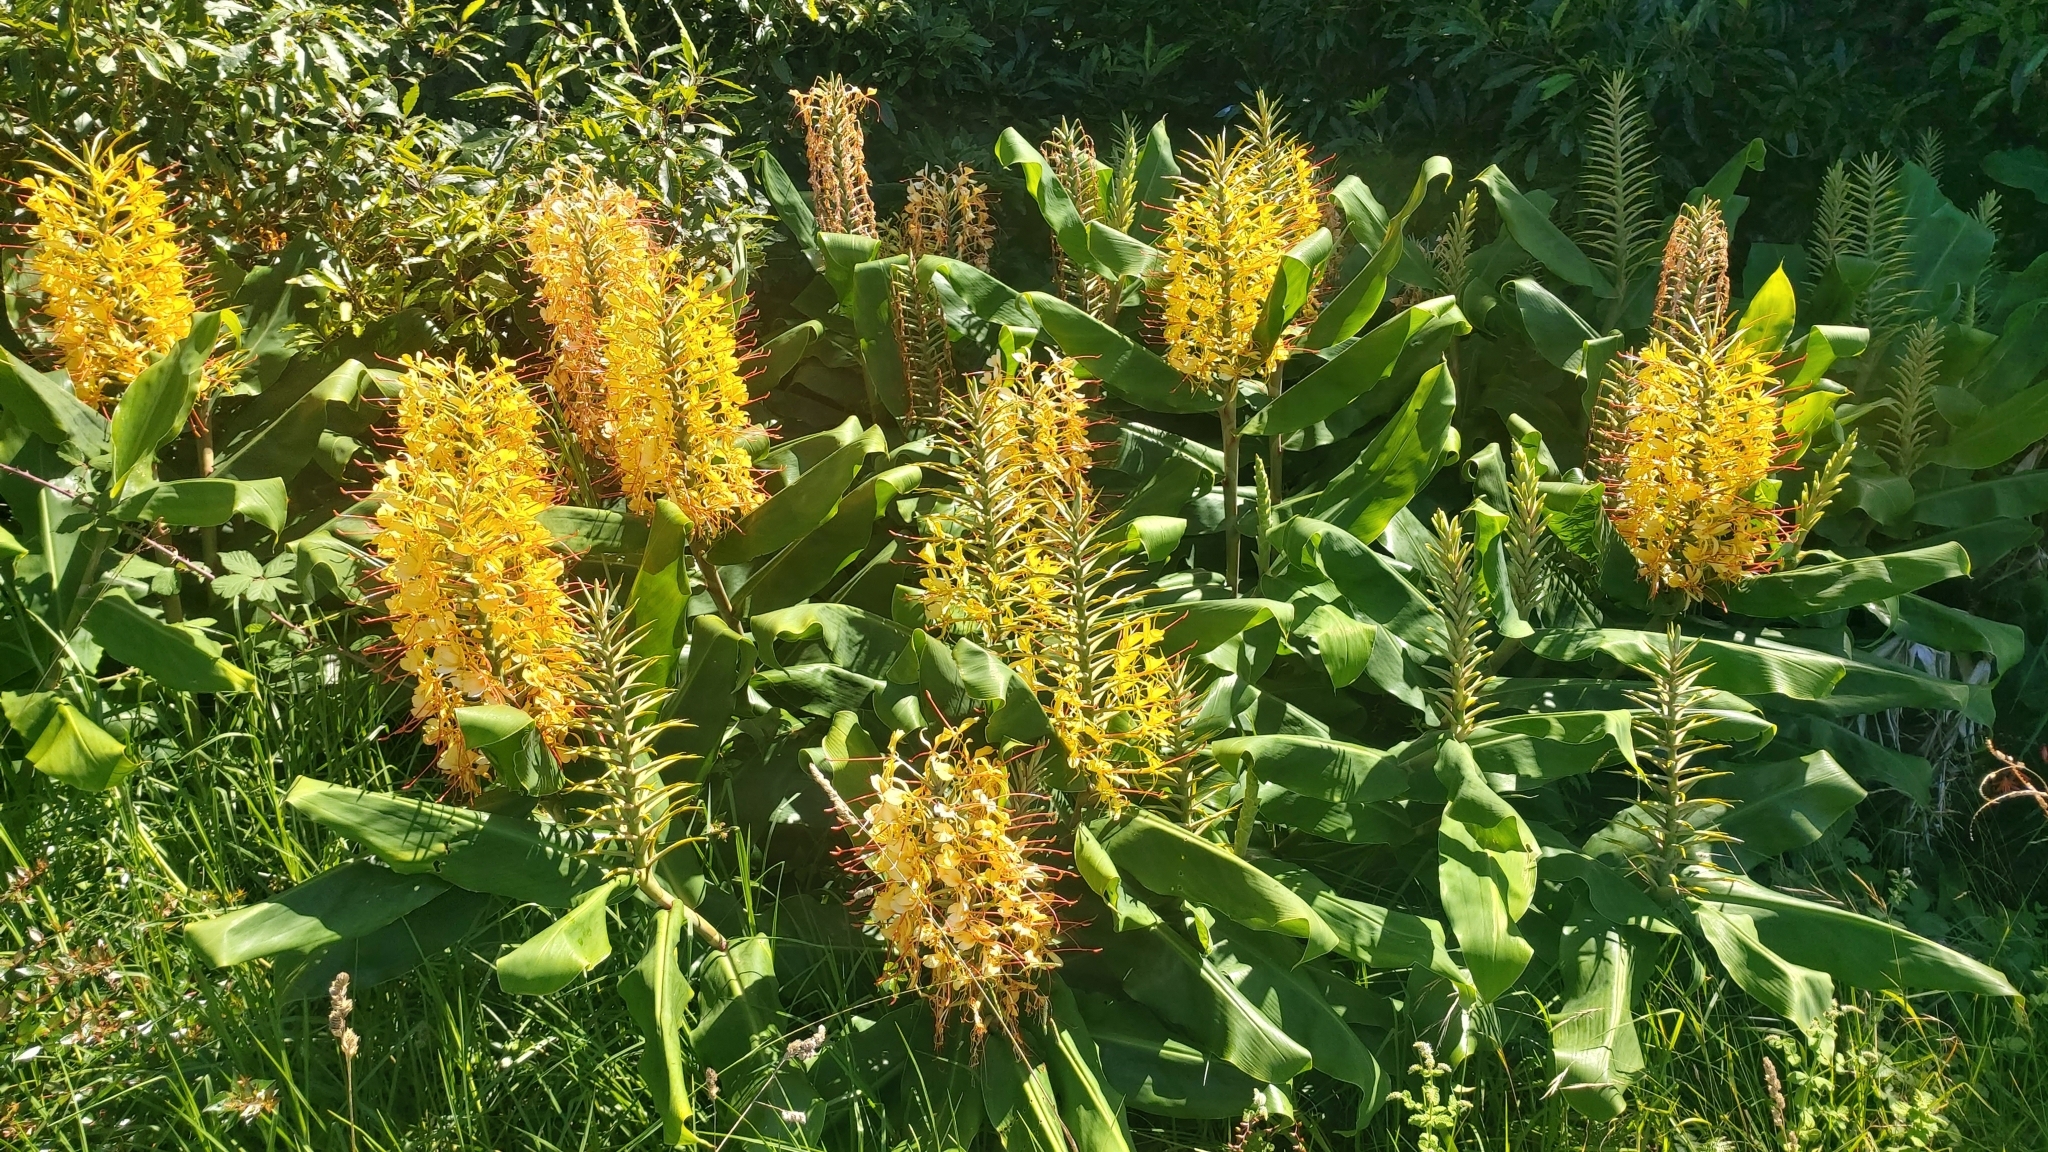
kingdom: Plantae
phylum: Tracheophyta
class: Liliopsida
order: Zingiberales
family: Zingiberaceae
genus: Hedychium
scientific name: Hedychium gardnerianum
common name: Himalayan ginger
